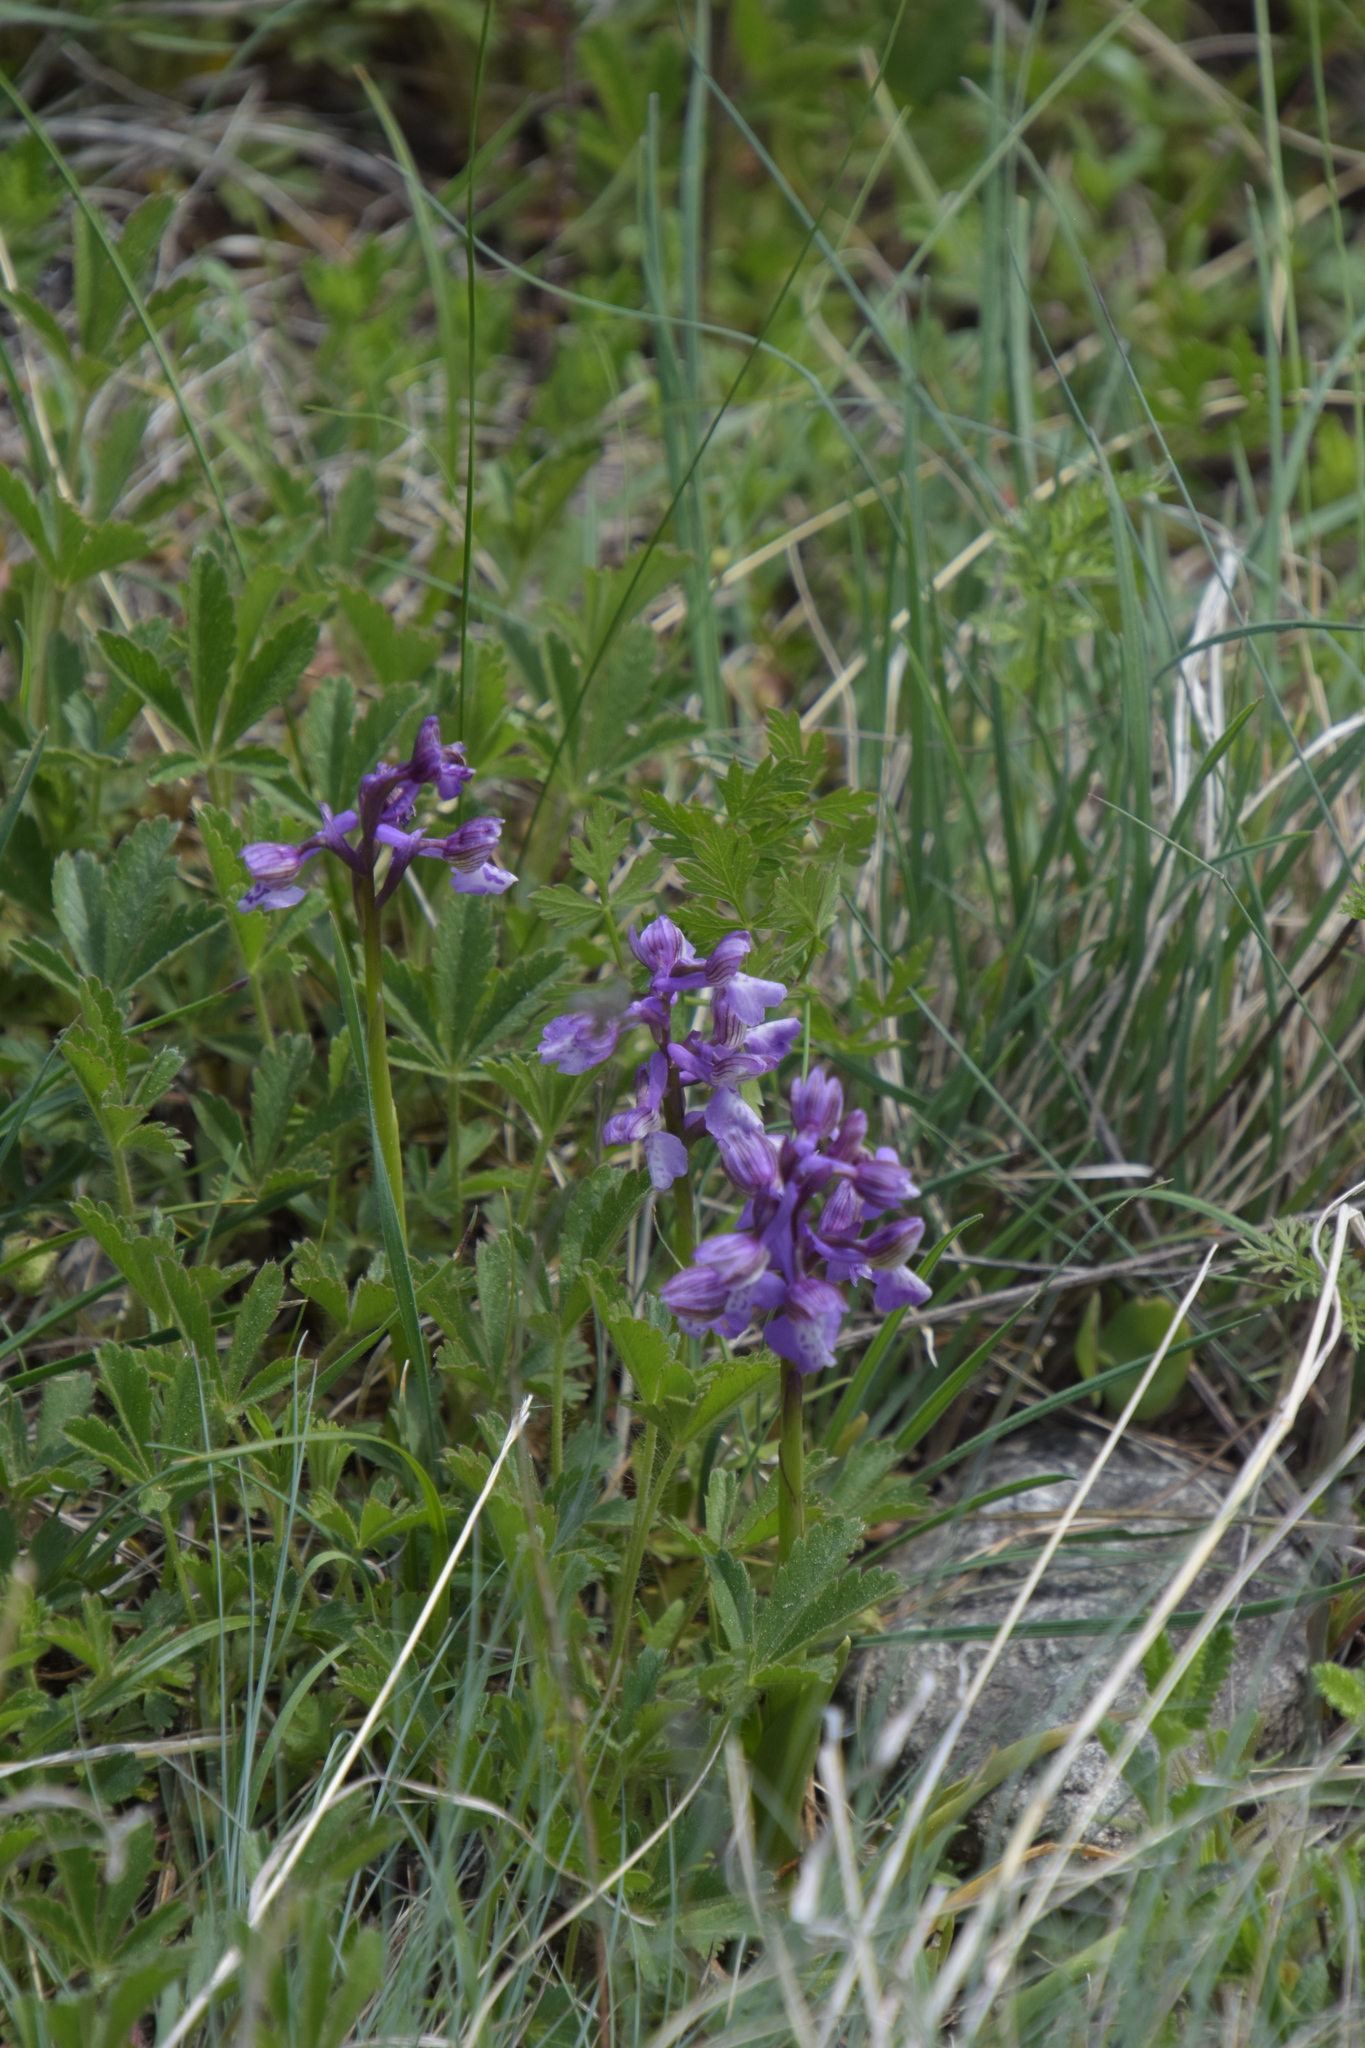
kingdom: Plantae
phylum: Tracheophyta
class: Liliopsida
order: Asparagales
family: Orchidaceae
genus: Anacamptis
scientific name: Anacamptis morio
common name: Green-winged orchid
